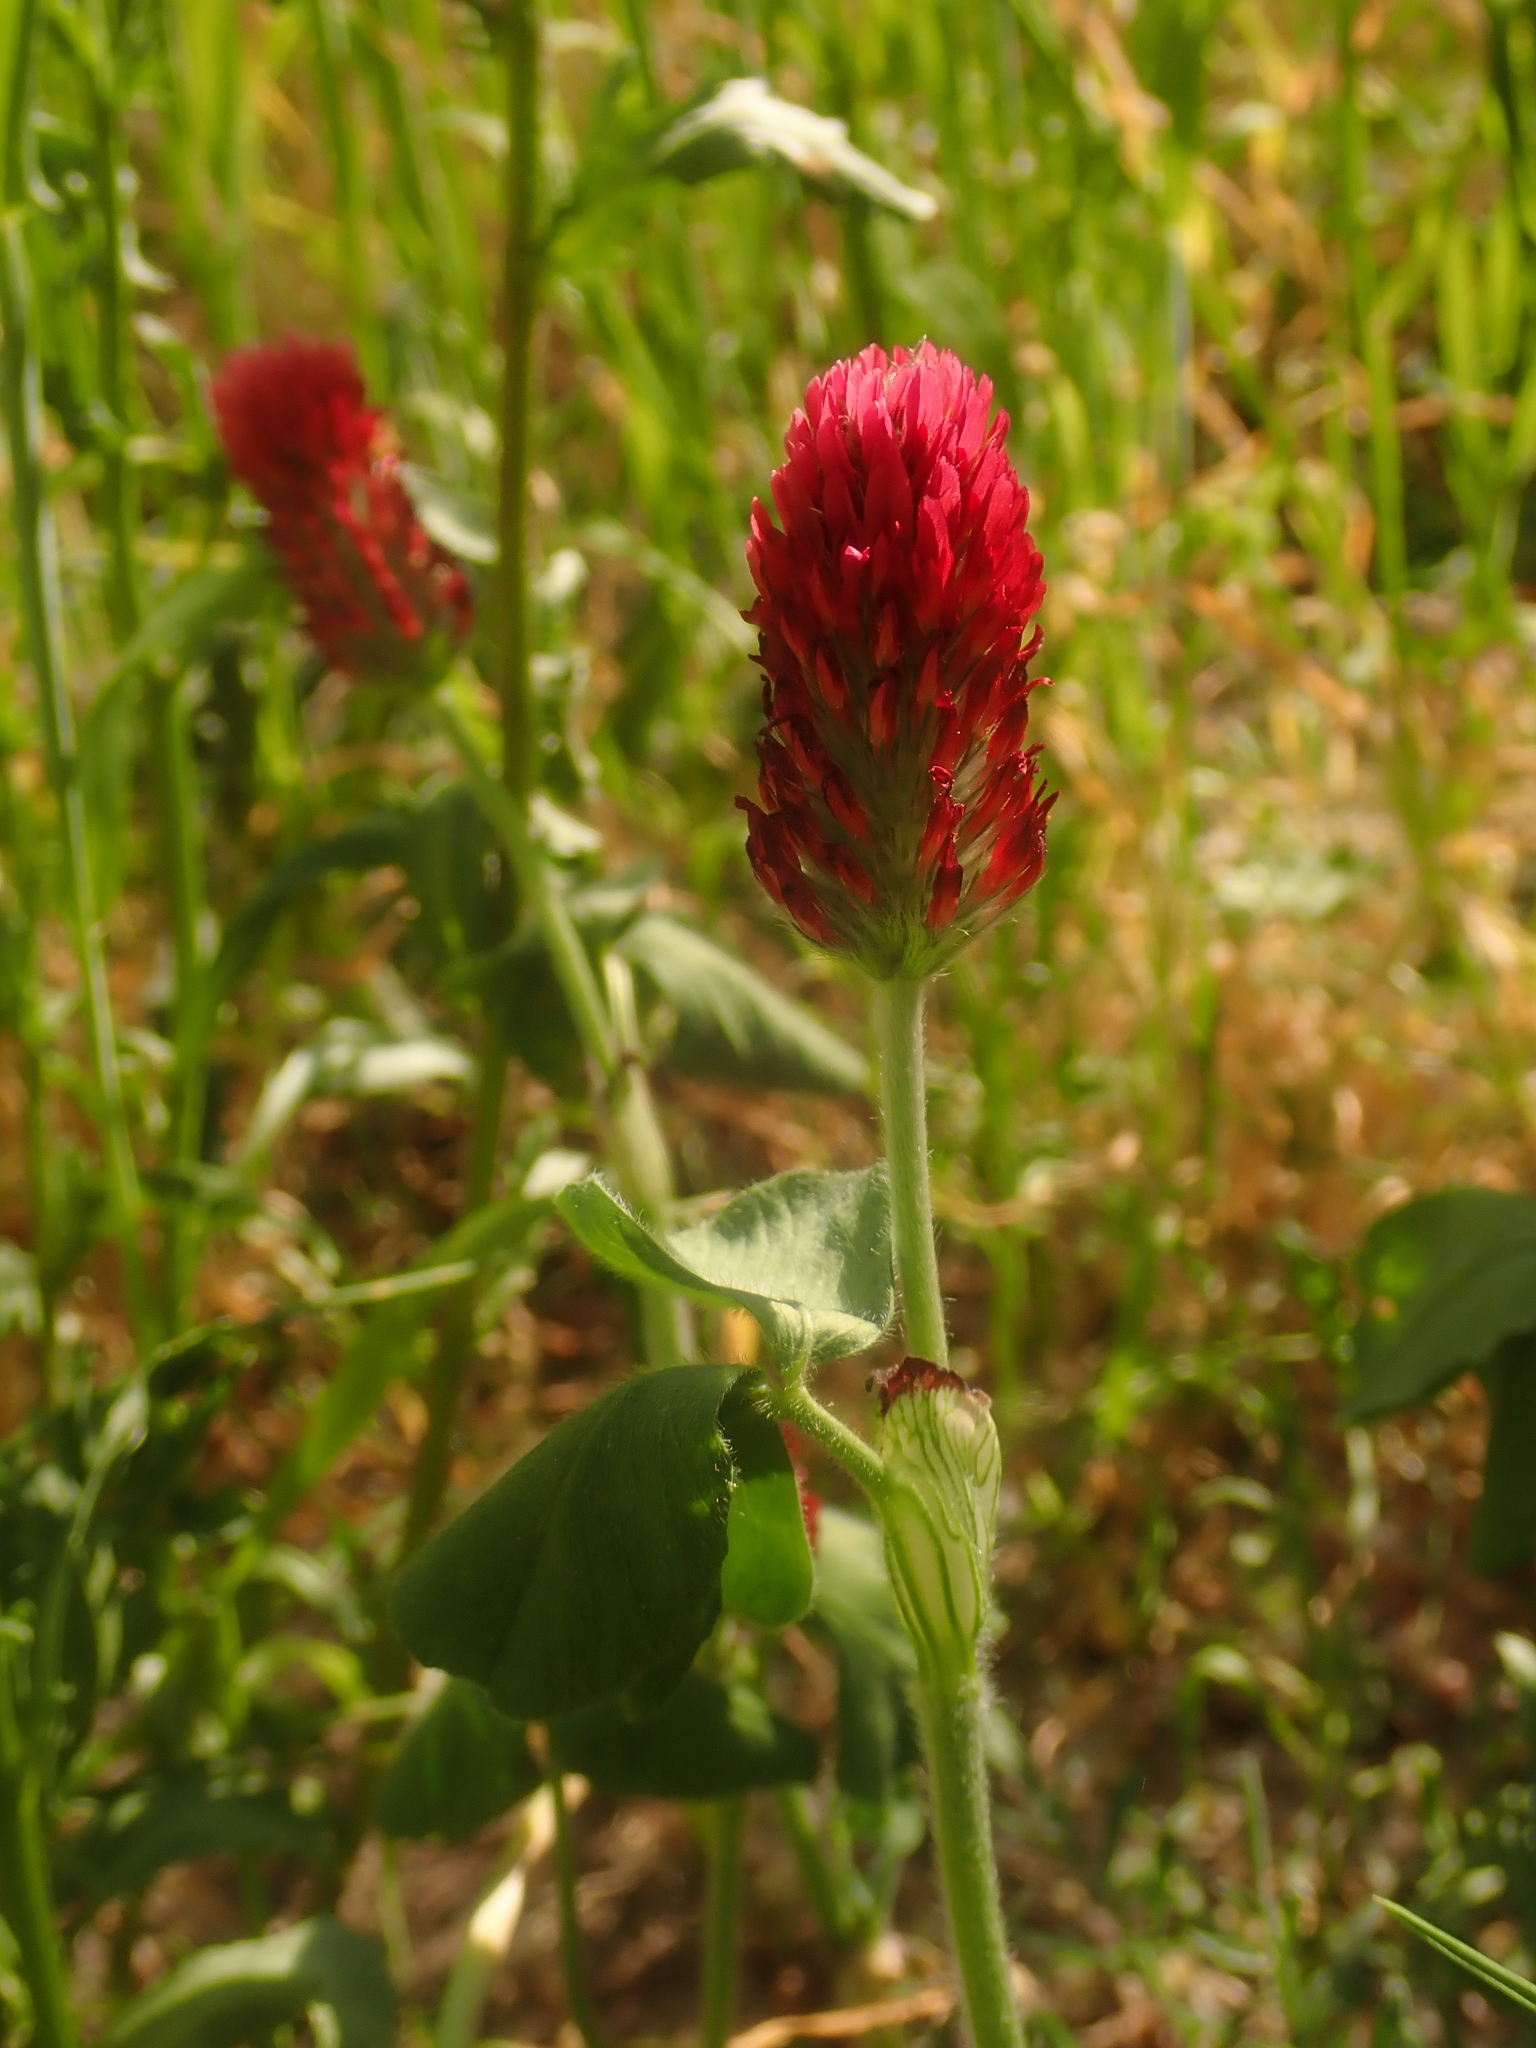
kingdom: Plantae
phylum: Tracheophyta
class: Magnoliopsida
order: Fabales
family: Fabaceae
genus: Trifolium
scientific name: Trifolium incarnatum
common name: Crimson clover
